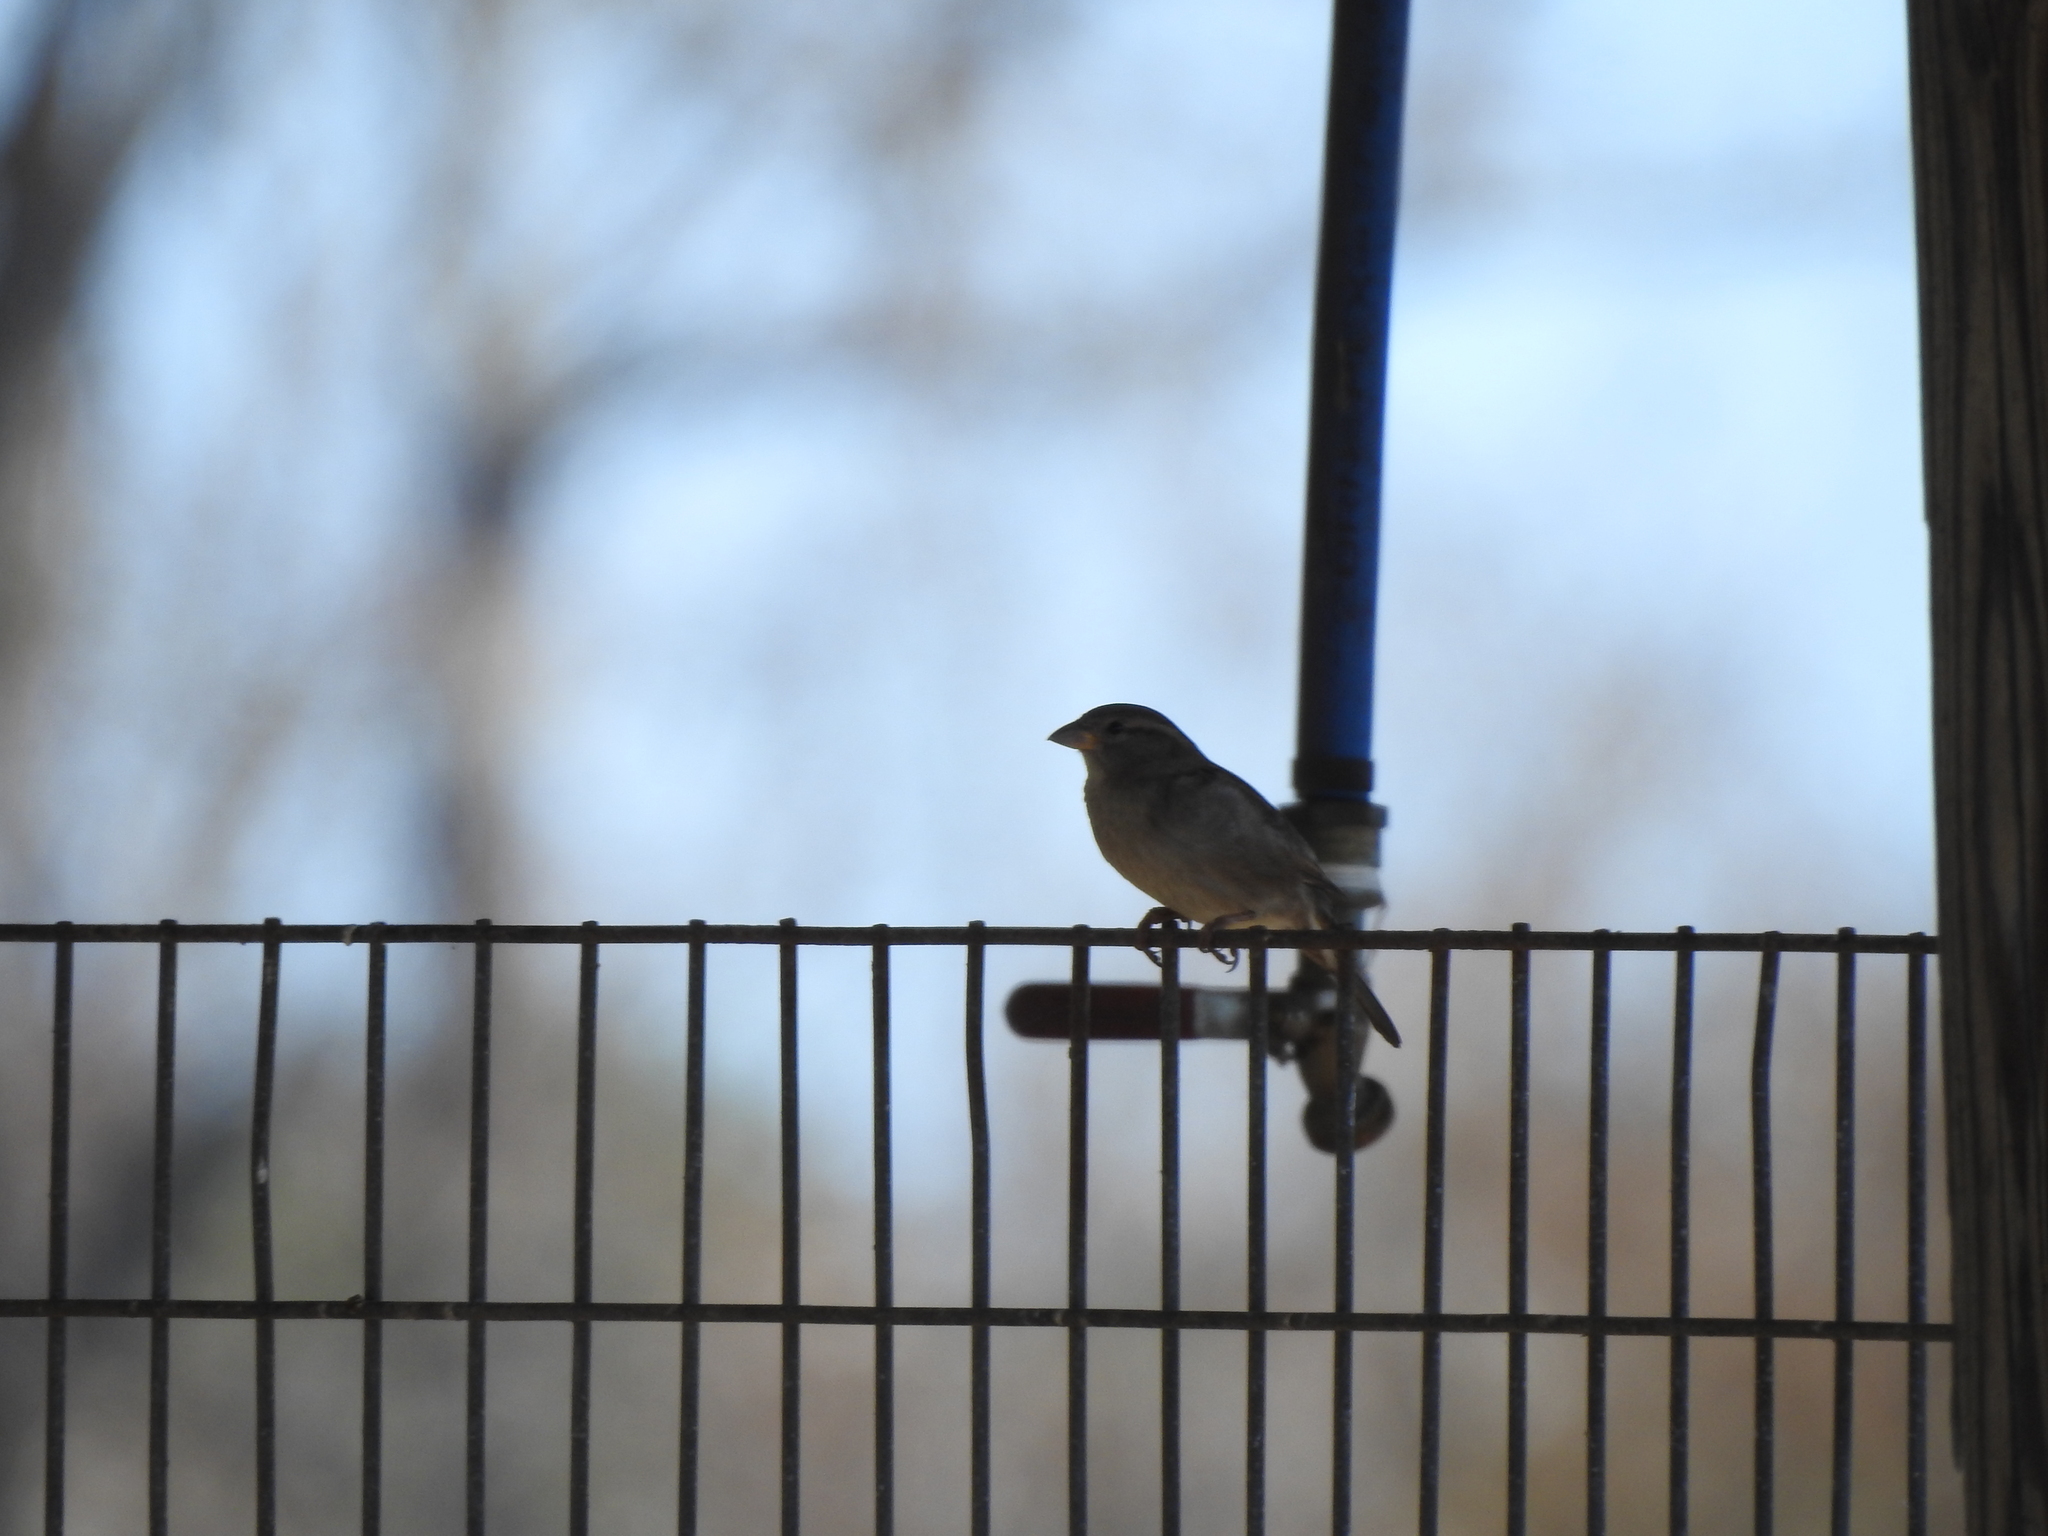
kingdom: Animalia
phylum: Chordata
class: Aves
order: Passeriformes
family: Passeridae
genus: Passer
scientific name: Passer domesticus
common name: House sparrow
